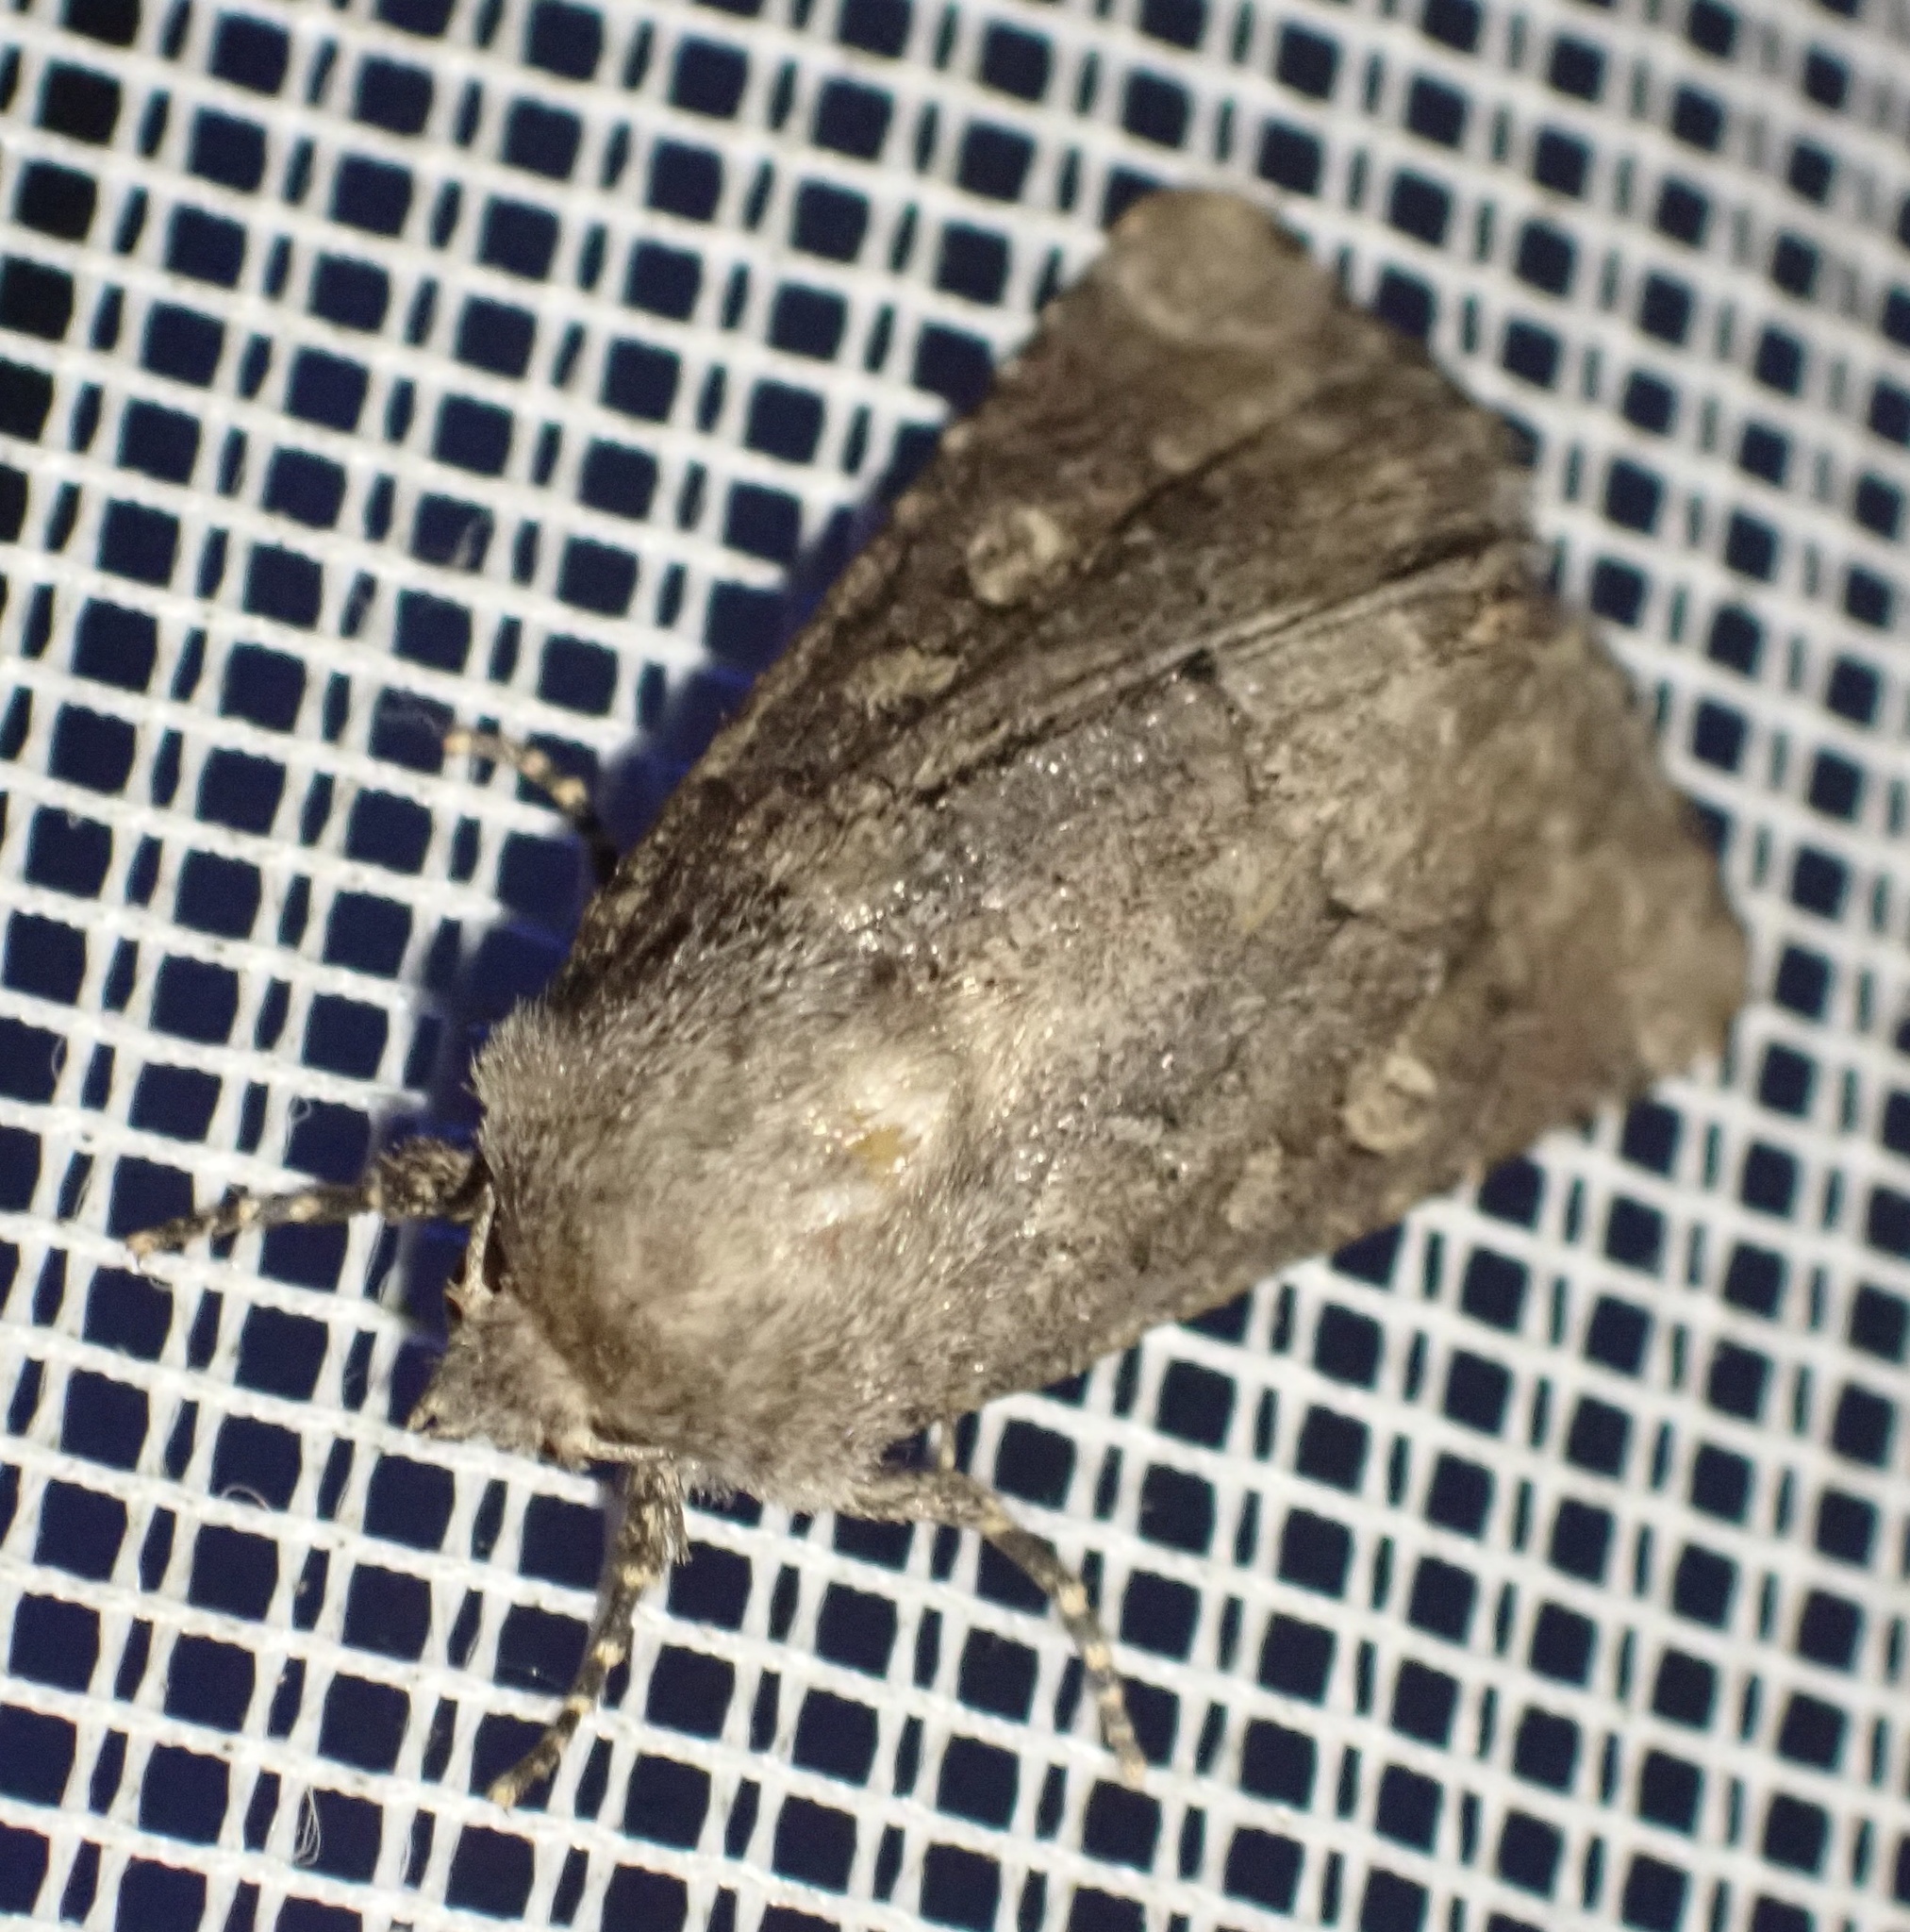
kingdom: Animalia
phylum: Arthropoda
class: Insecta
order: Lepidoptera
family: Noctuidae
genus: Luperina
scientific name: Luperina testacea
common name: Flounced rustic
